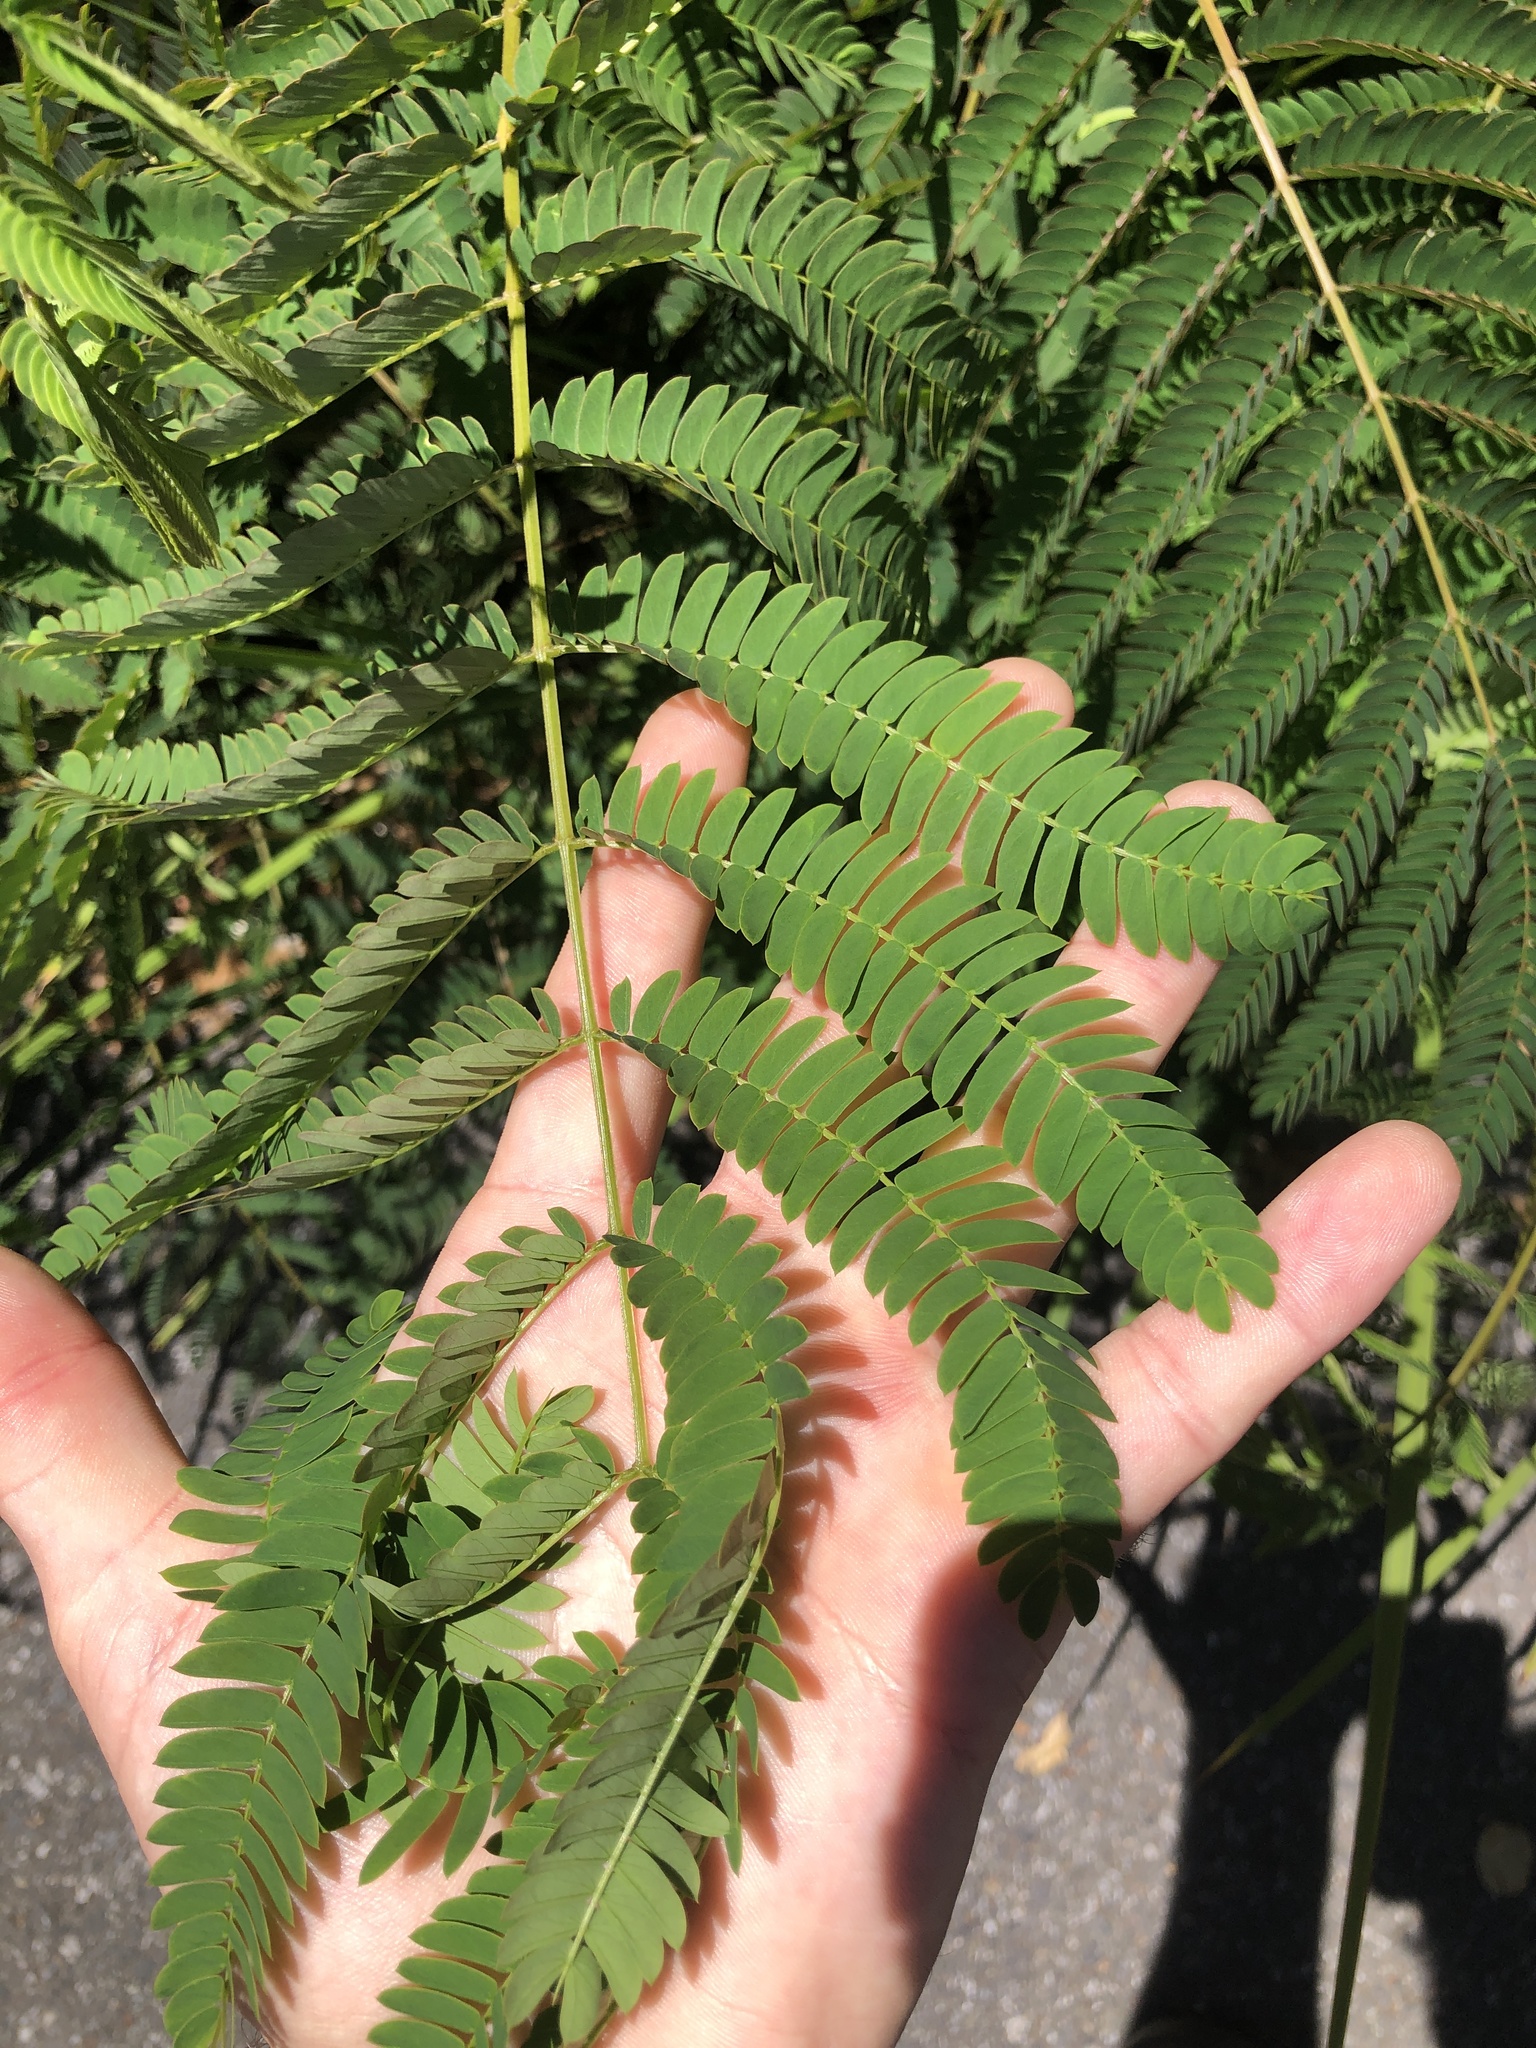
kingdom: Plantae
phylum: Tracheophyta
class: Magnoliopsida
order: Fabales
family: Fabaceae
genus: Albizia
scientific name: Albizia julibrissin
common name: Silktree
